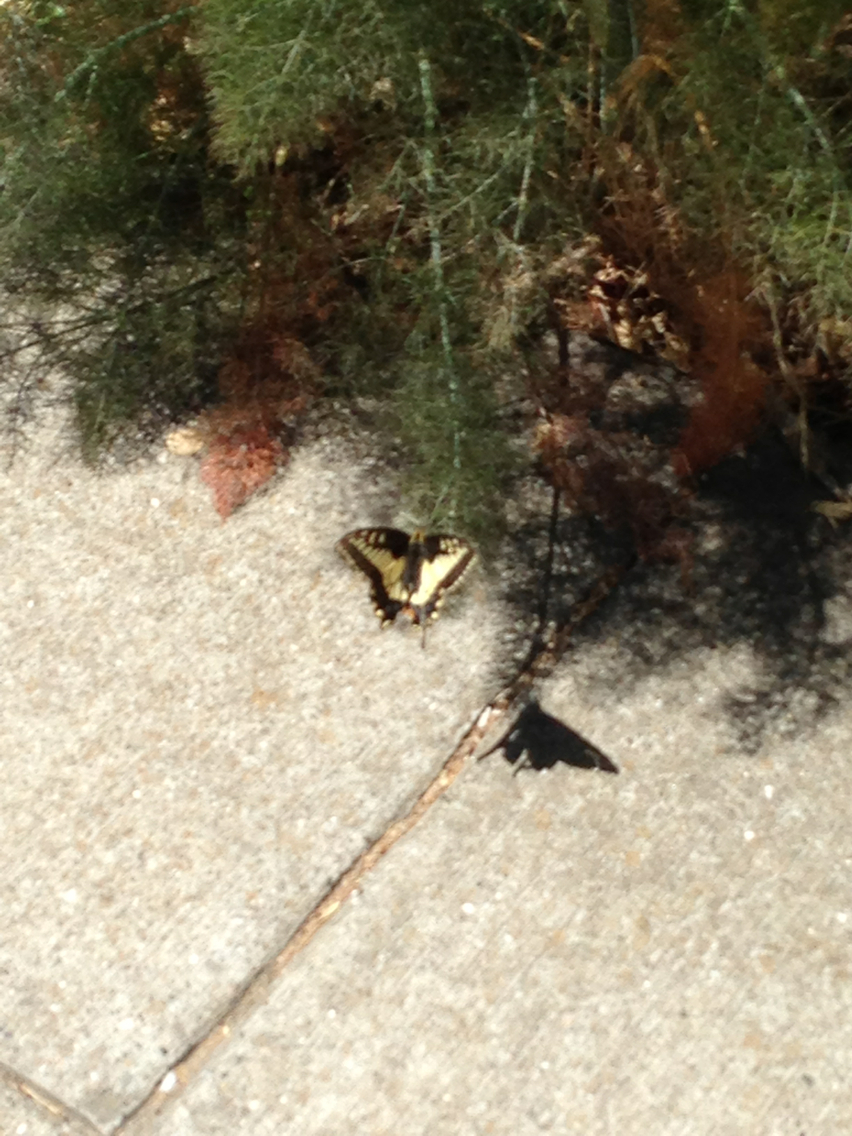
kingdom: Animalia
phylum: Arthropoda
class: Insecta
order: Lepidoptera
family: Papilionidae
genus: Papilio
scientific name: Papilio zelicaon
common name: Anise swallowtail
